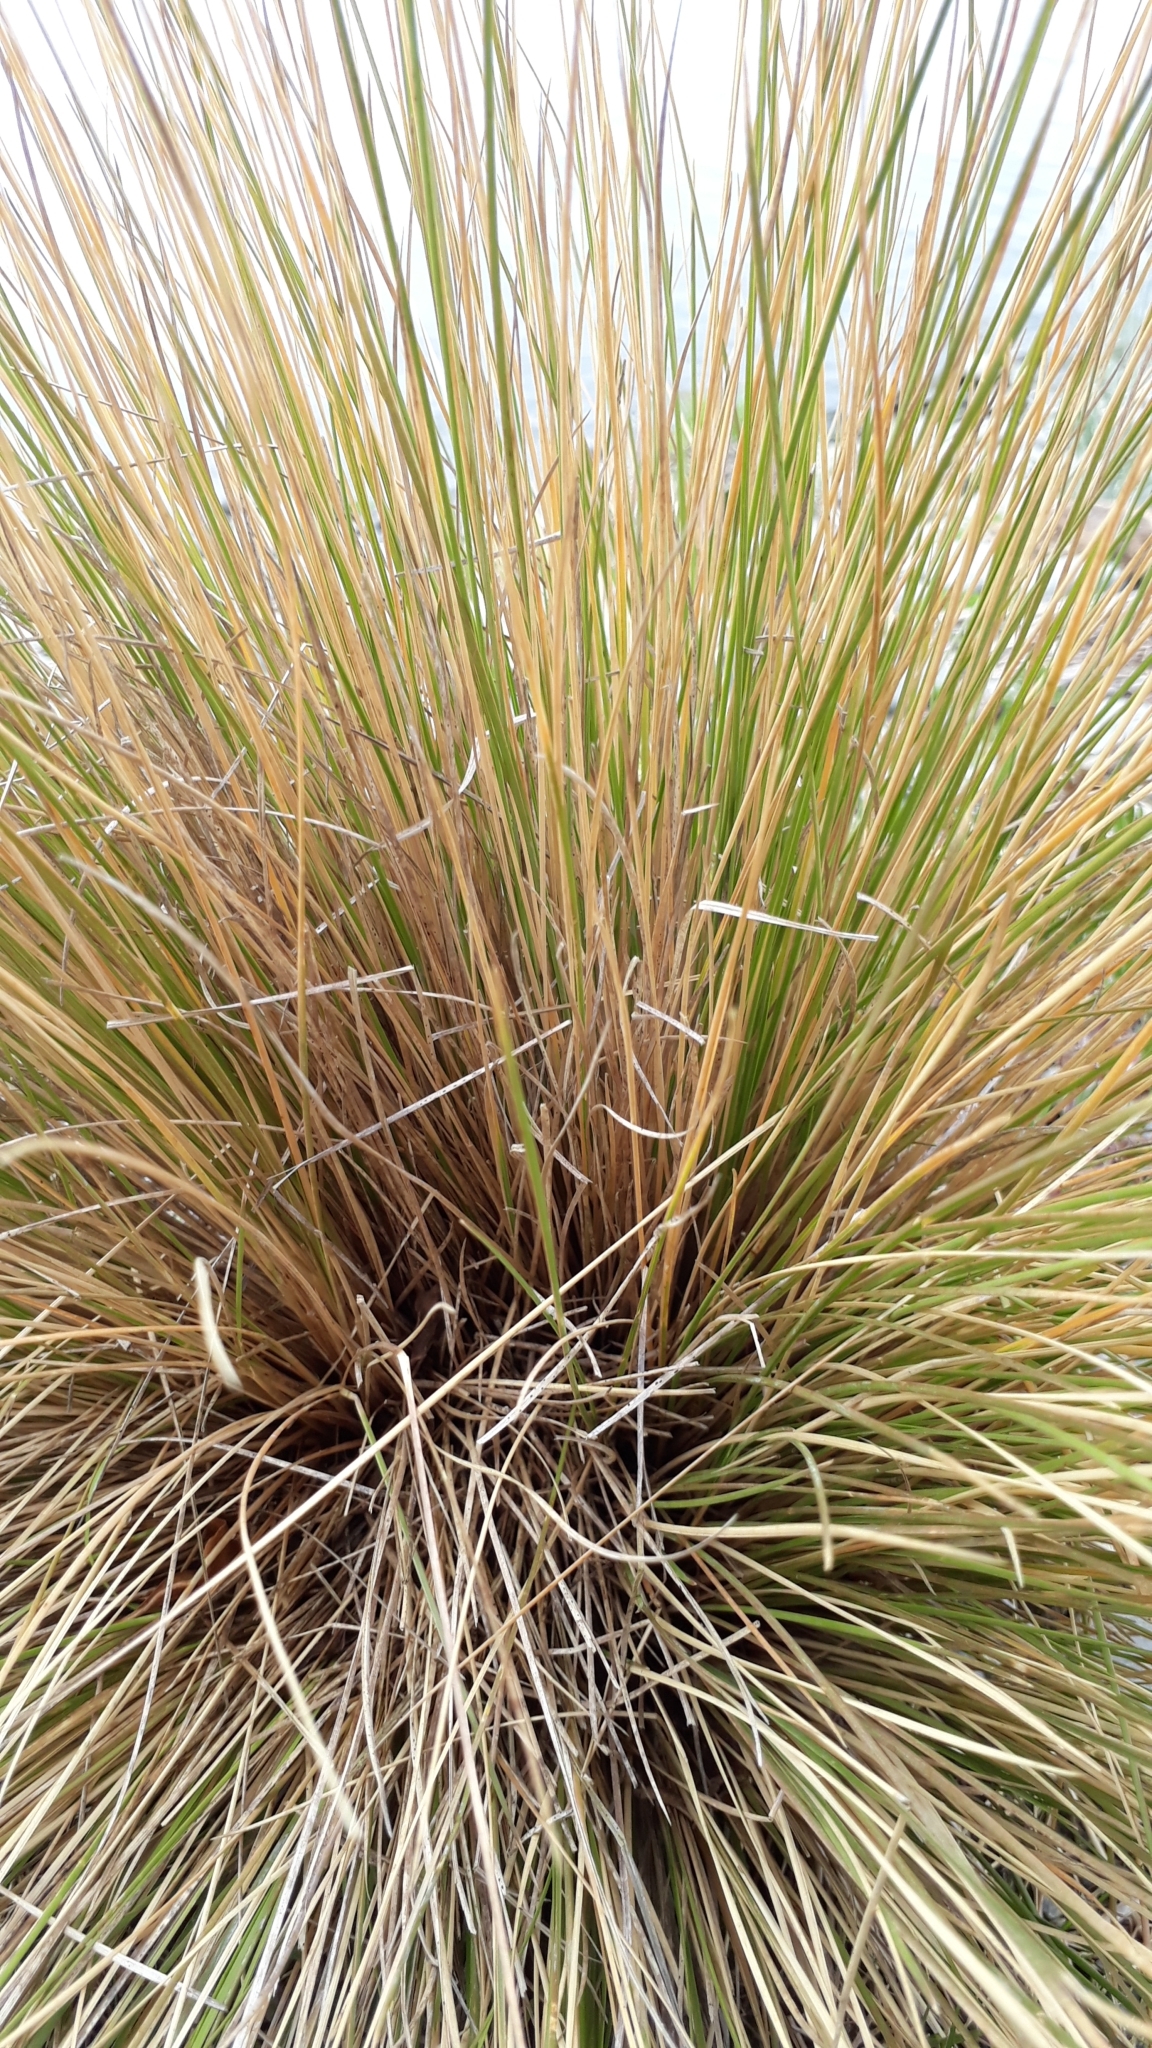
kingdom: Plantae
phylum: Tracheophyta
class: Liliopsida
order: Poales
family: Poaceae
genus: Poa
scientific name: Poa cita
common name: Silver tussock
